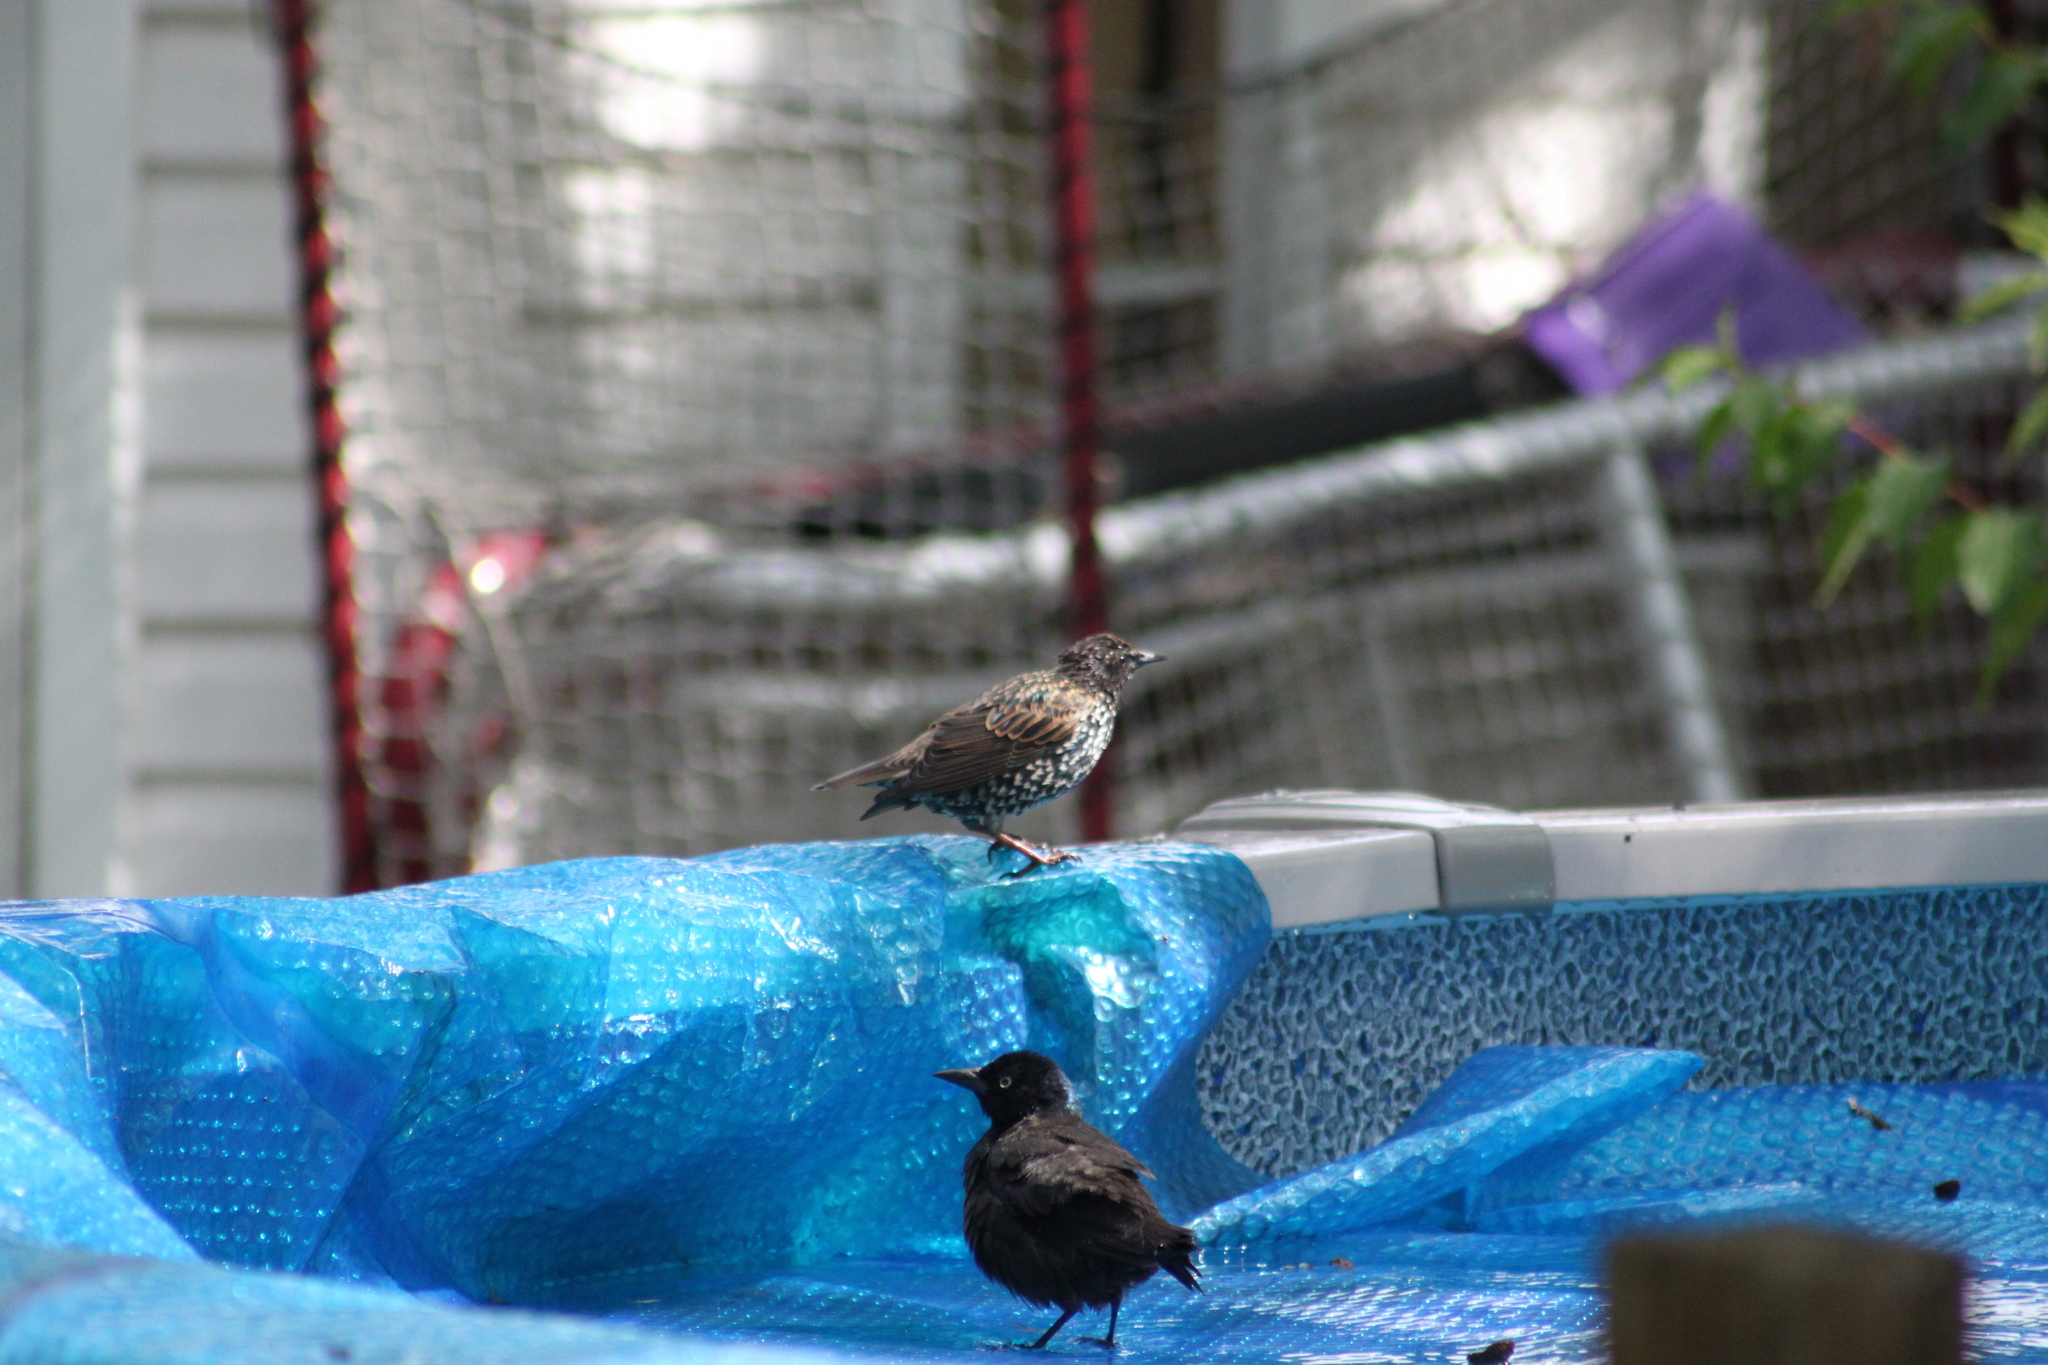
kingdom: Animalia
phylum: Chordata
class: Aves
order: Passeriformes
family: Sturnidae
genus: Sturnus
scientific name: Sturnus vulgaris
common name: Common starling
